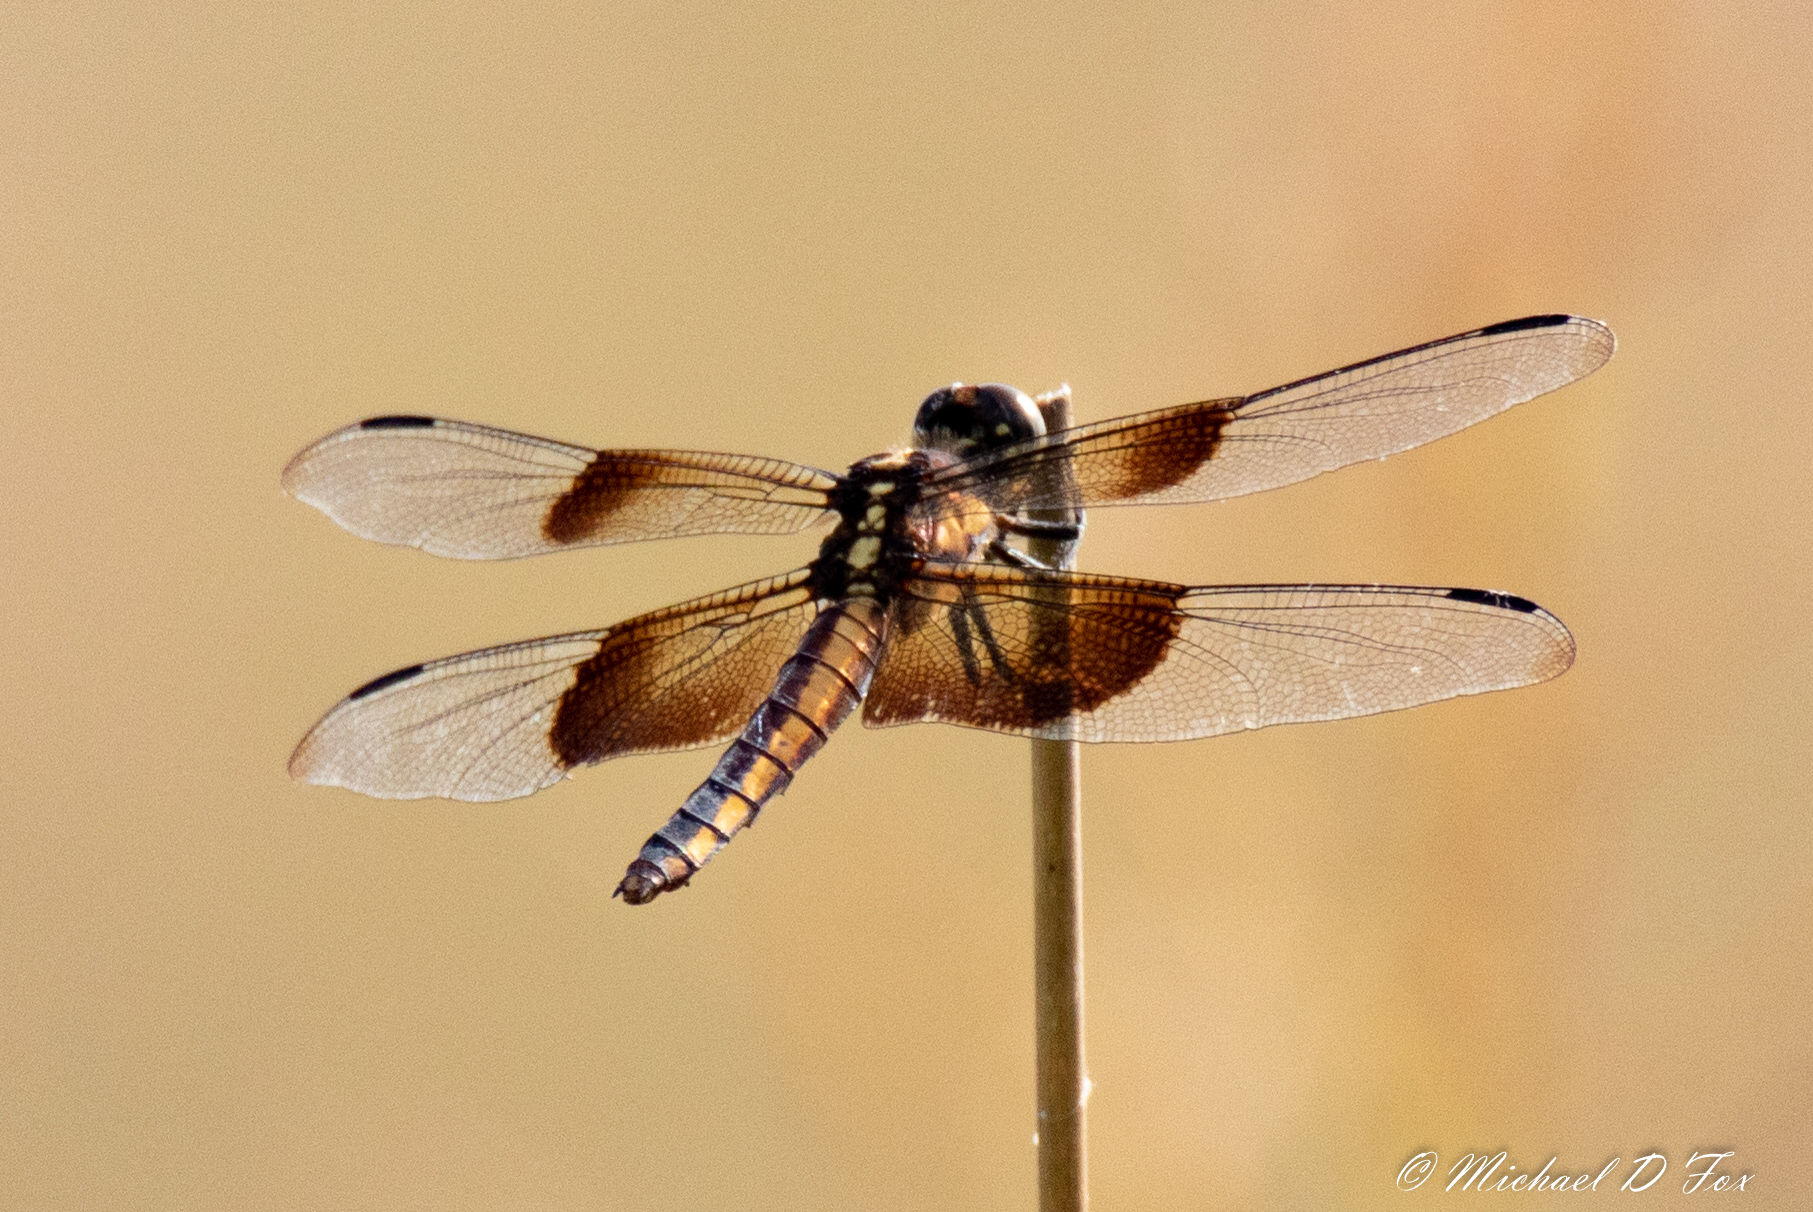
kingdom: Animalia
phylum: Arthropoda
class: Insecta
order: Odonata
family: Libellulidae
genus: Libellula
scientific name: Libellula luctuosa
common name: Widow skimmer
